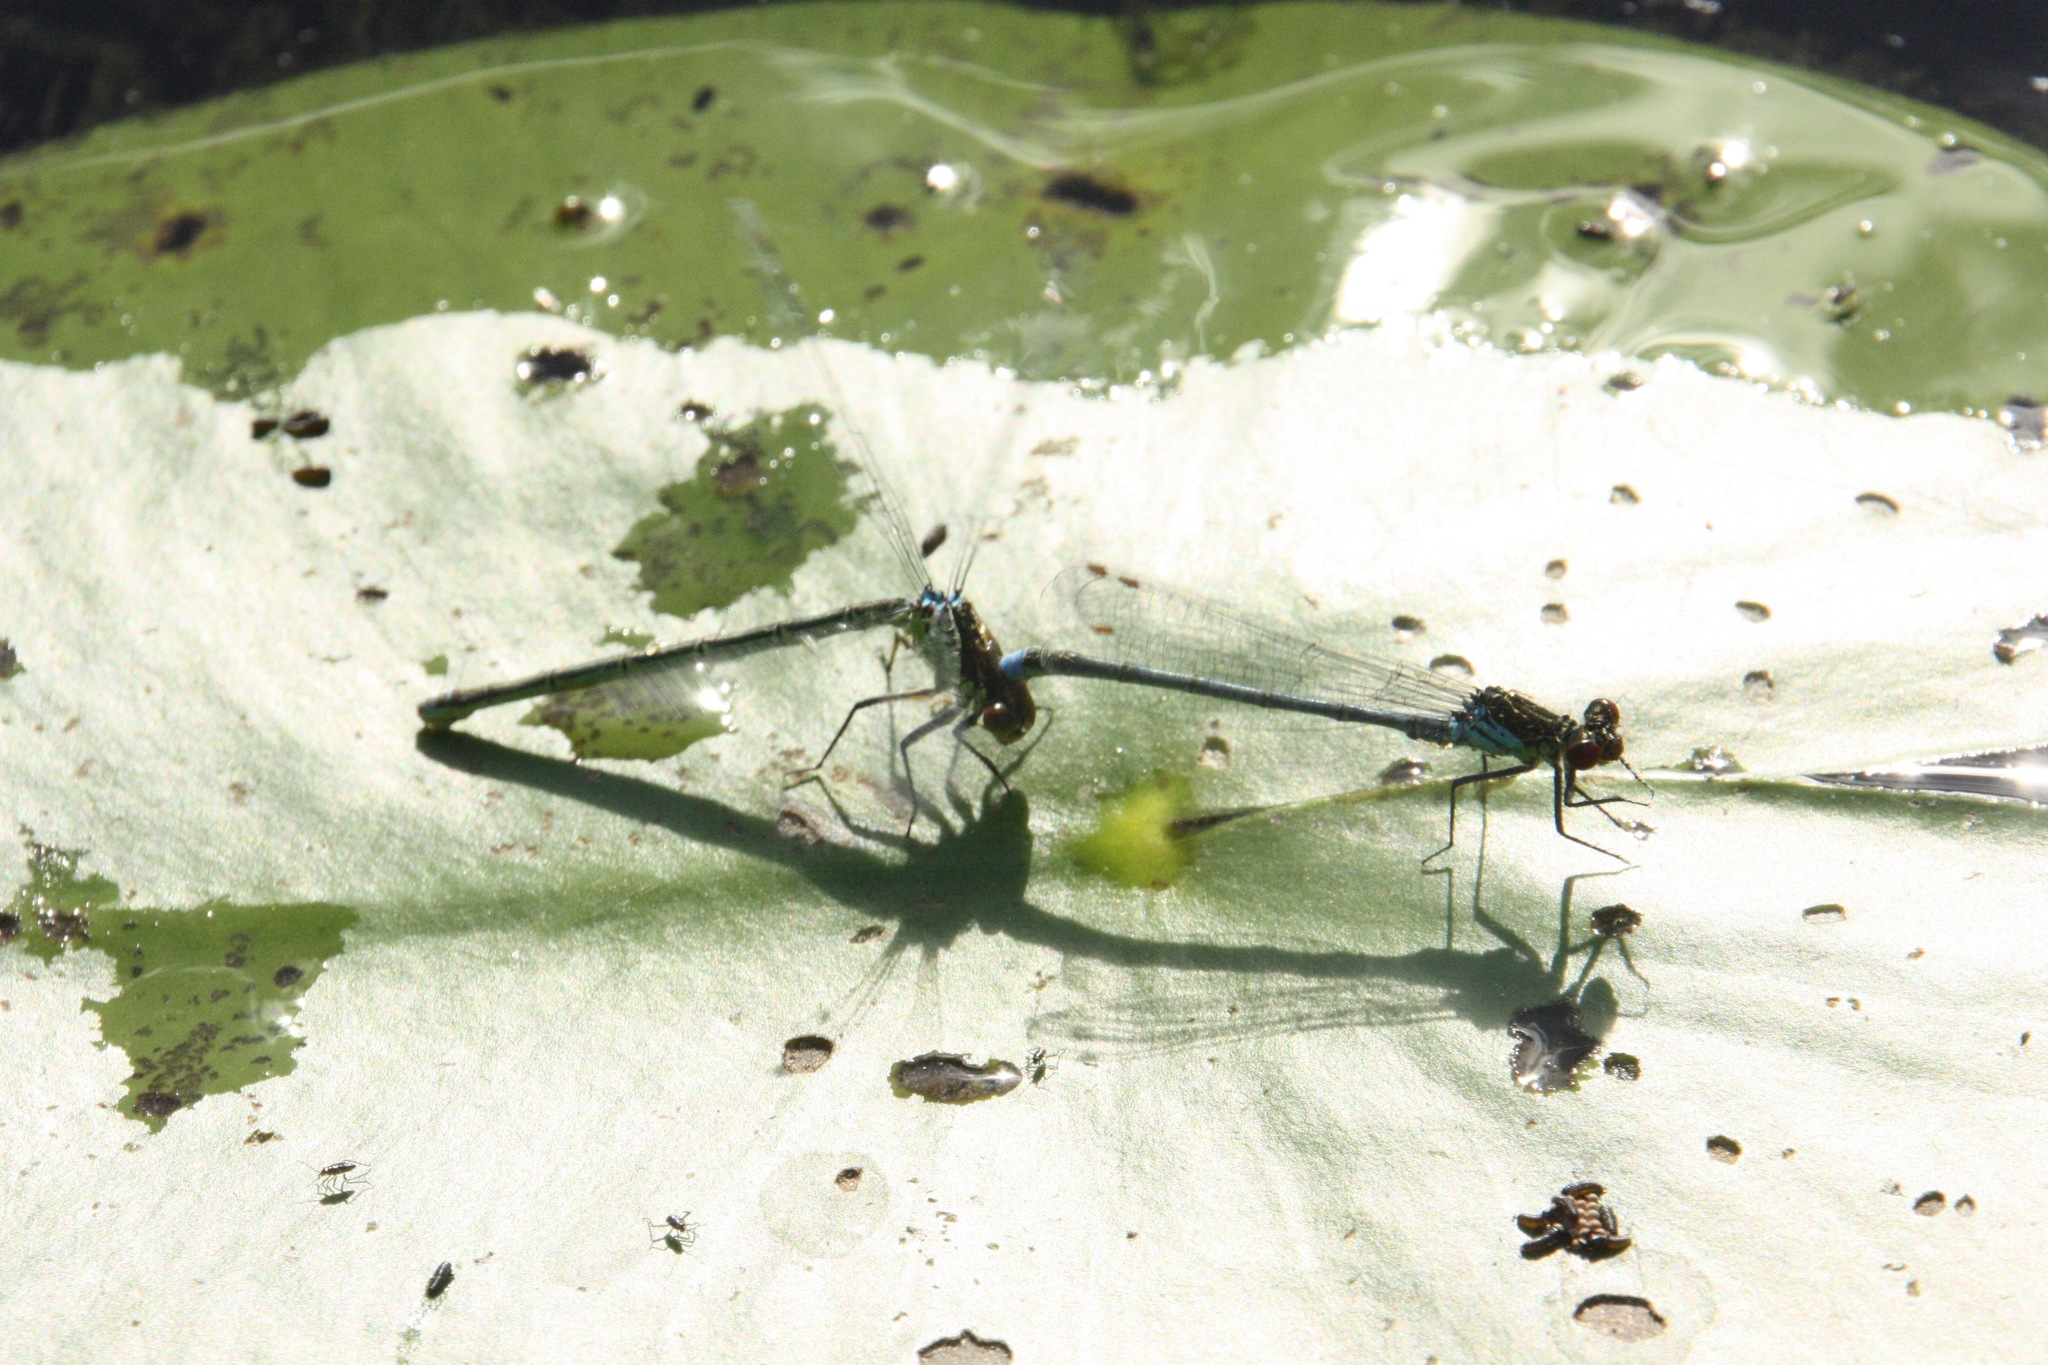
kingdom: Animalia
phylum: Arthropoda
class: Insecta
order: Odonata
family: Coenagrionidae
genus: Erythromma
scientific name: Erythromma najas
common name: Red-eyed damselfly
